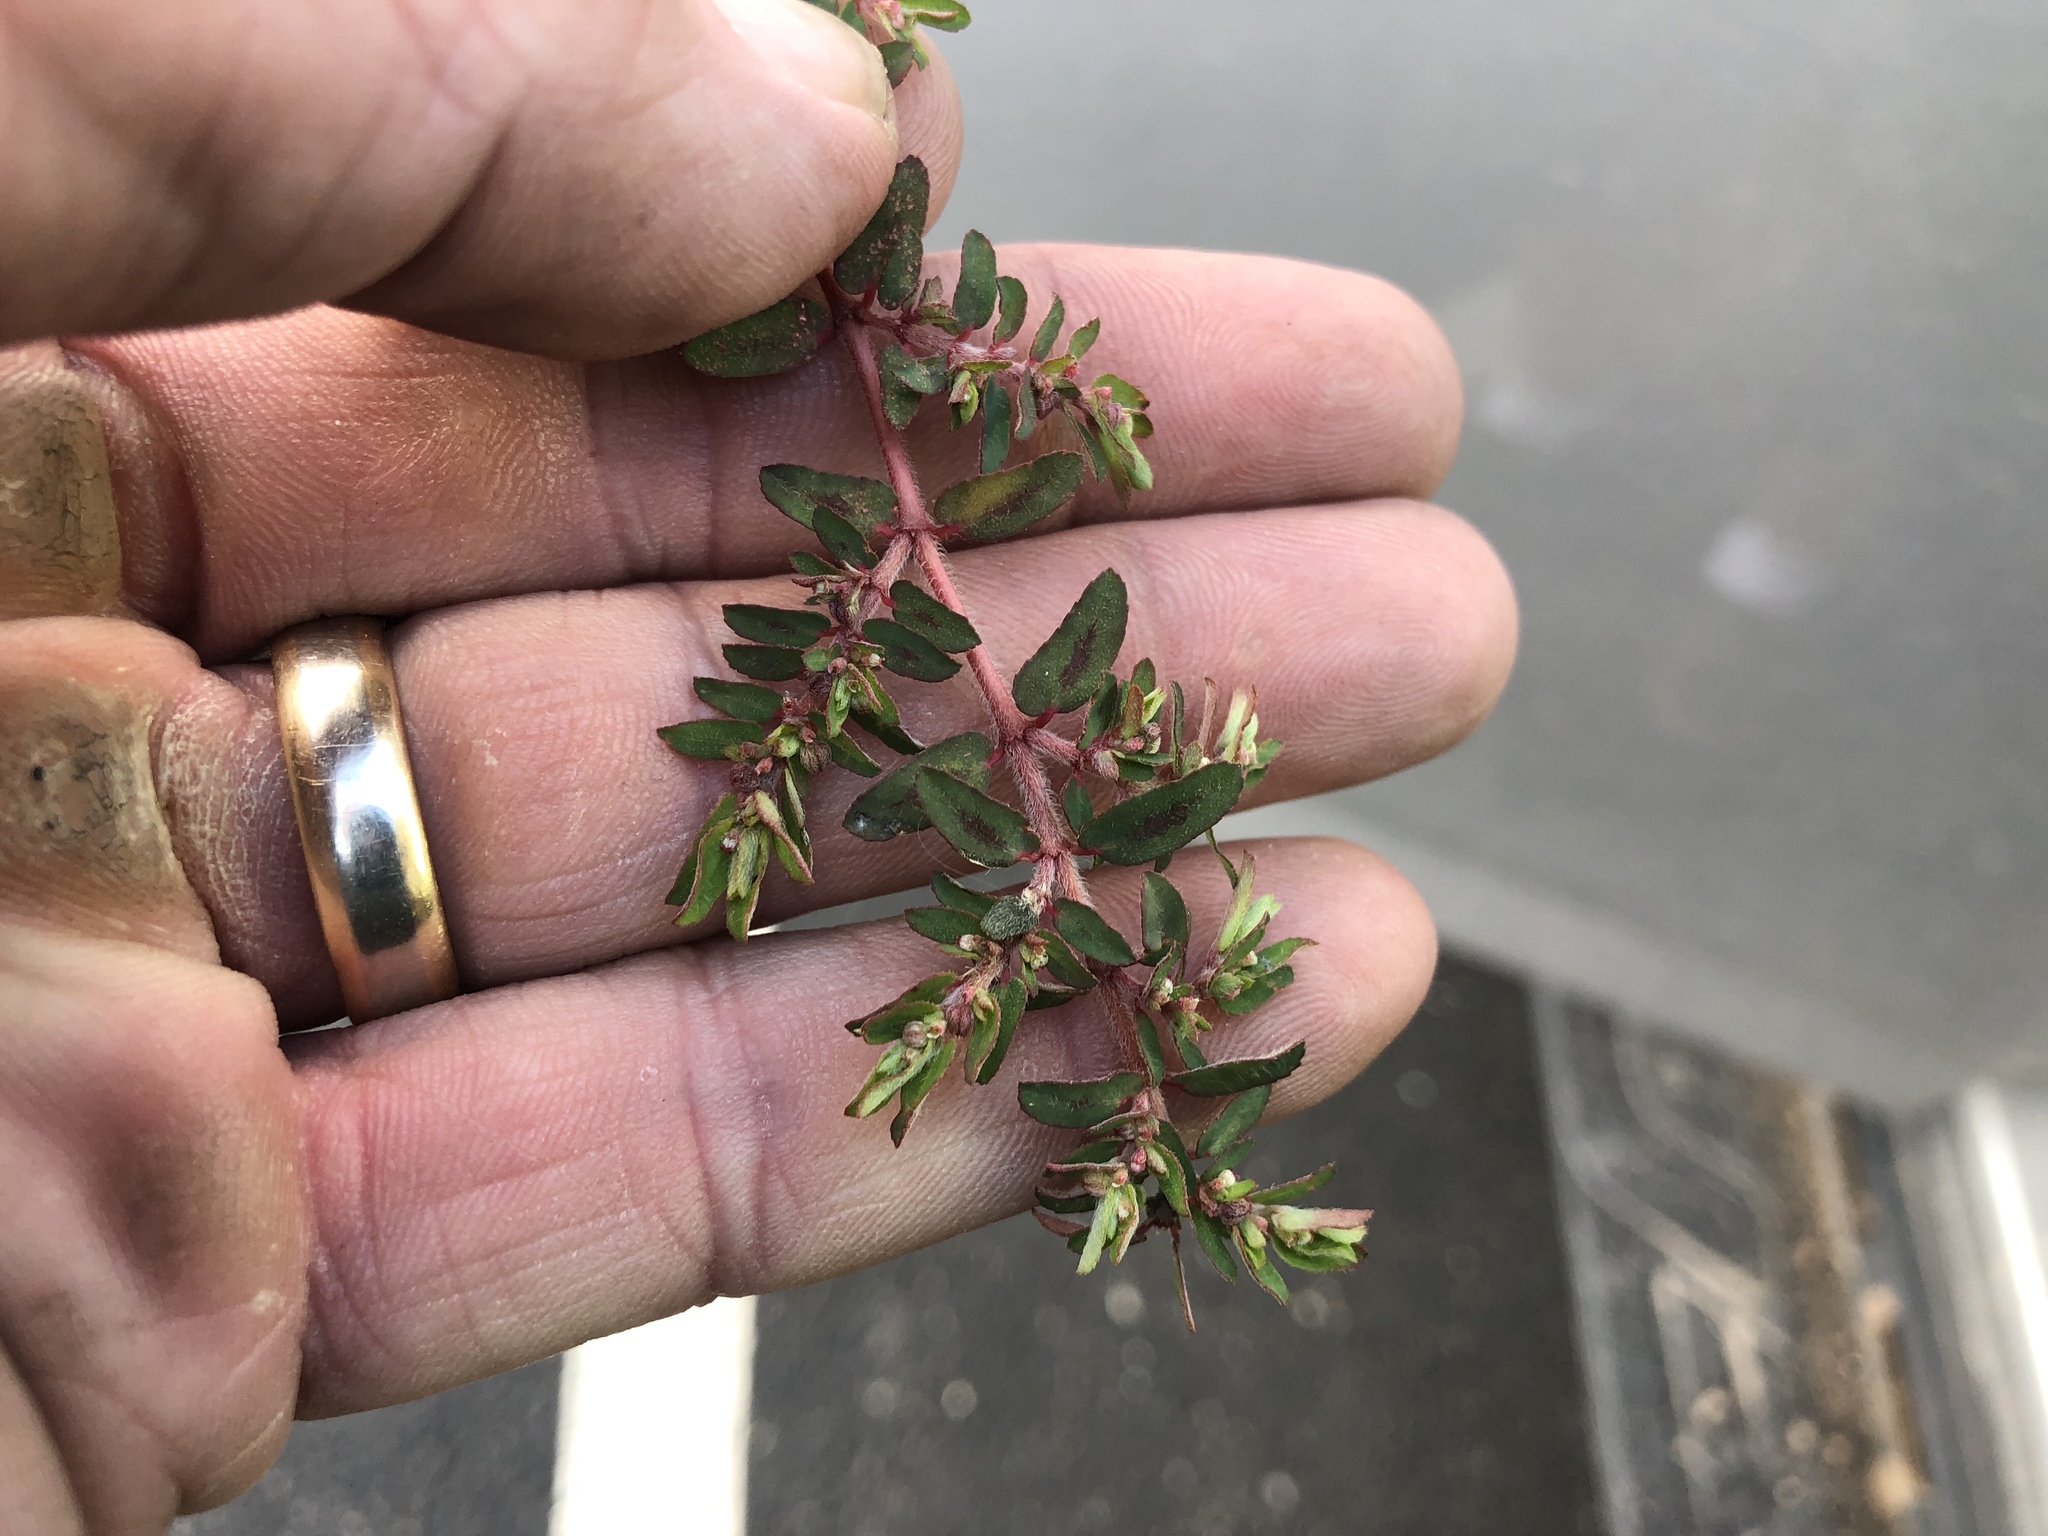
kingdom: Plantae
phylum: Tracheophyta
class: Magnoliopsida
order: Malpighiales
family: Euphorbiaceae
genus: Euphorbia
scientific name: Euphorbia maculata
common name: Spotted spurge
